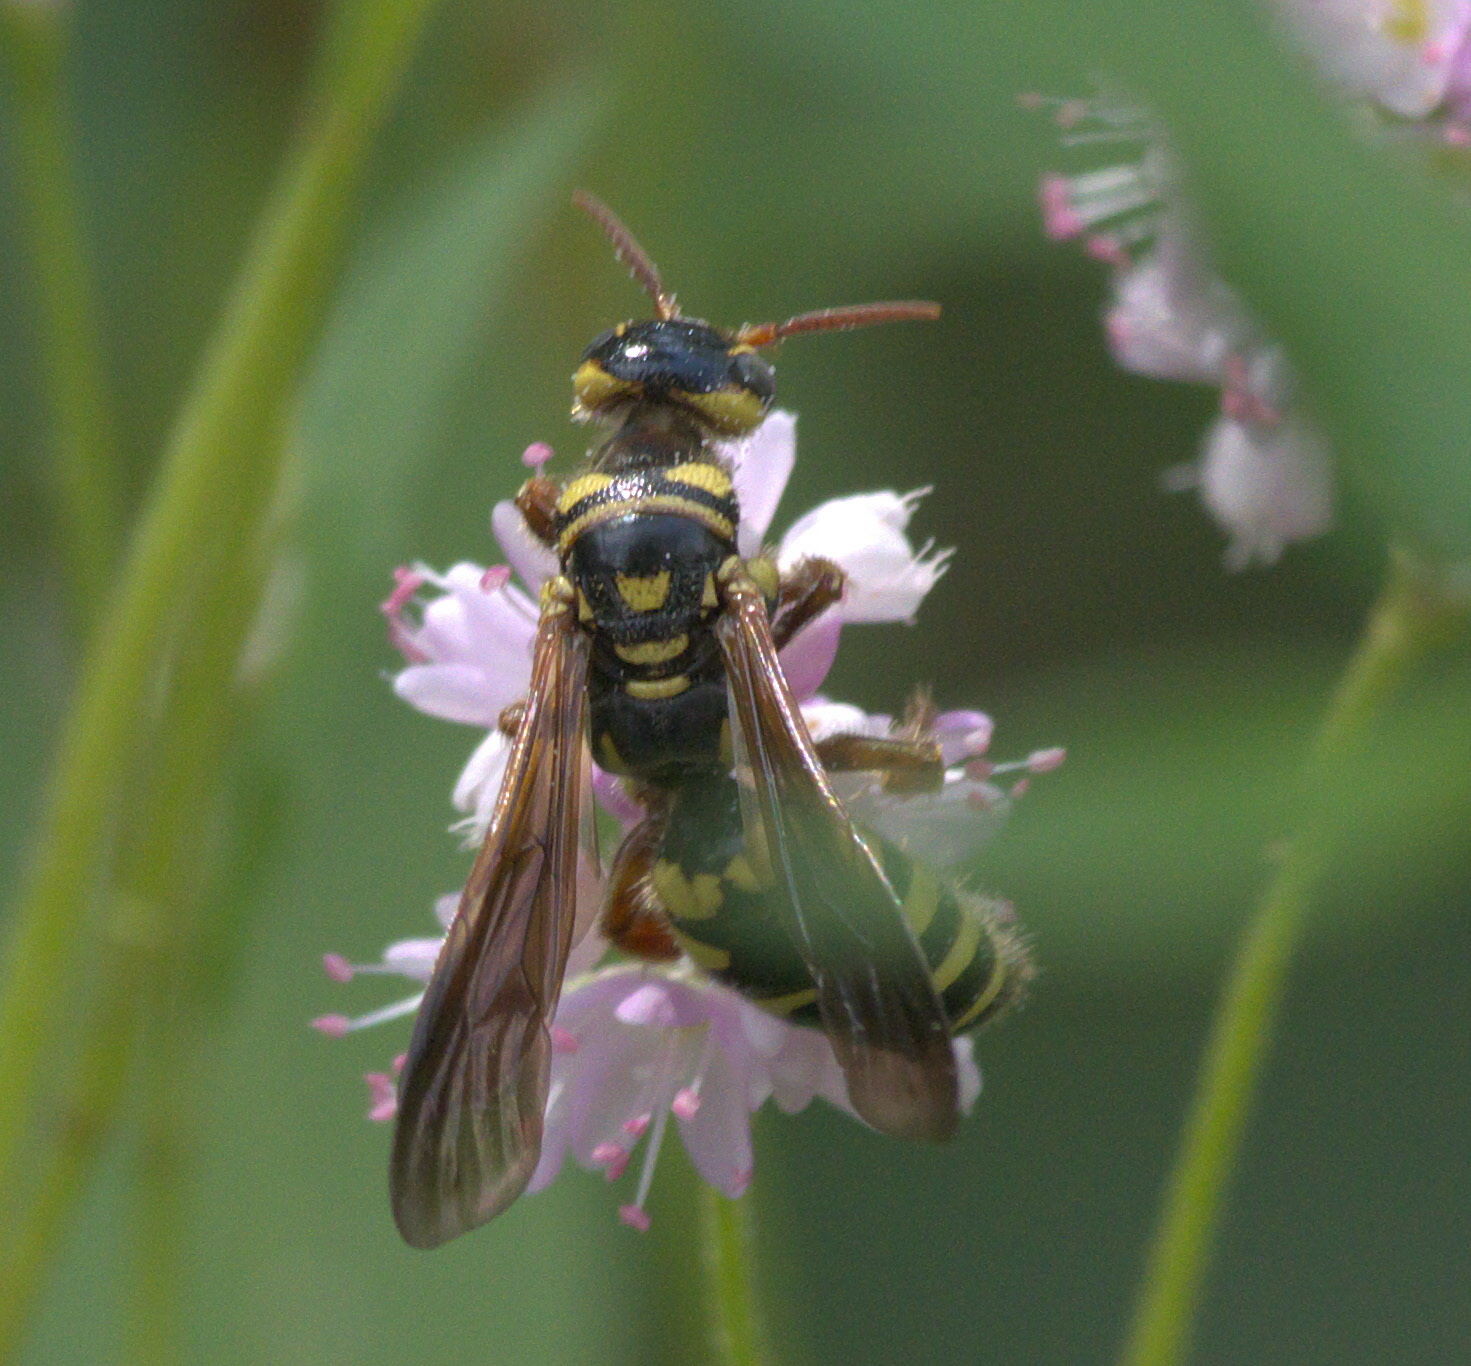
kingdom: Animalia
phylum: Arthropoda
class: Insecta
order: Hymenoptera
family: Tiphiidae
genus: Myzinum
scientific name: Myzinum
